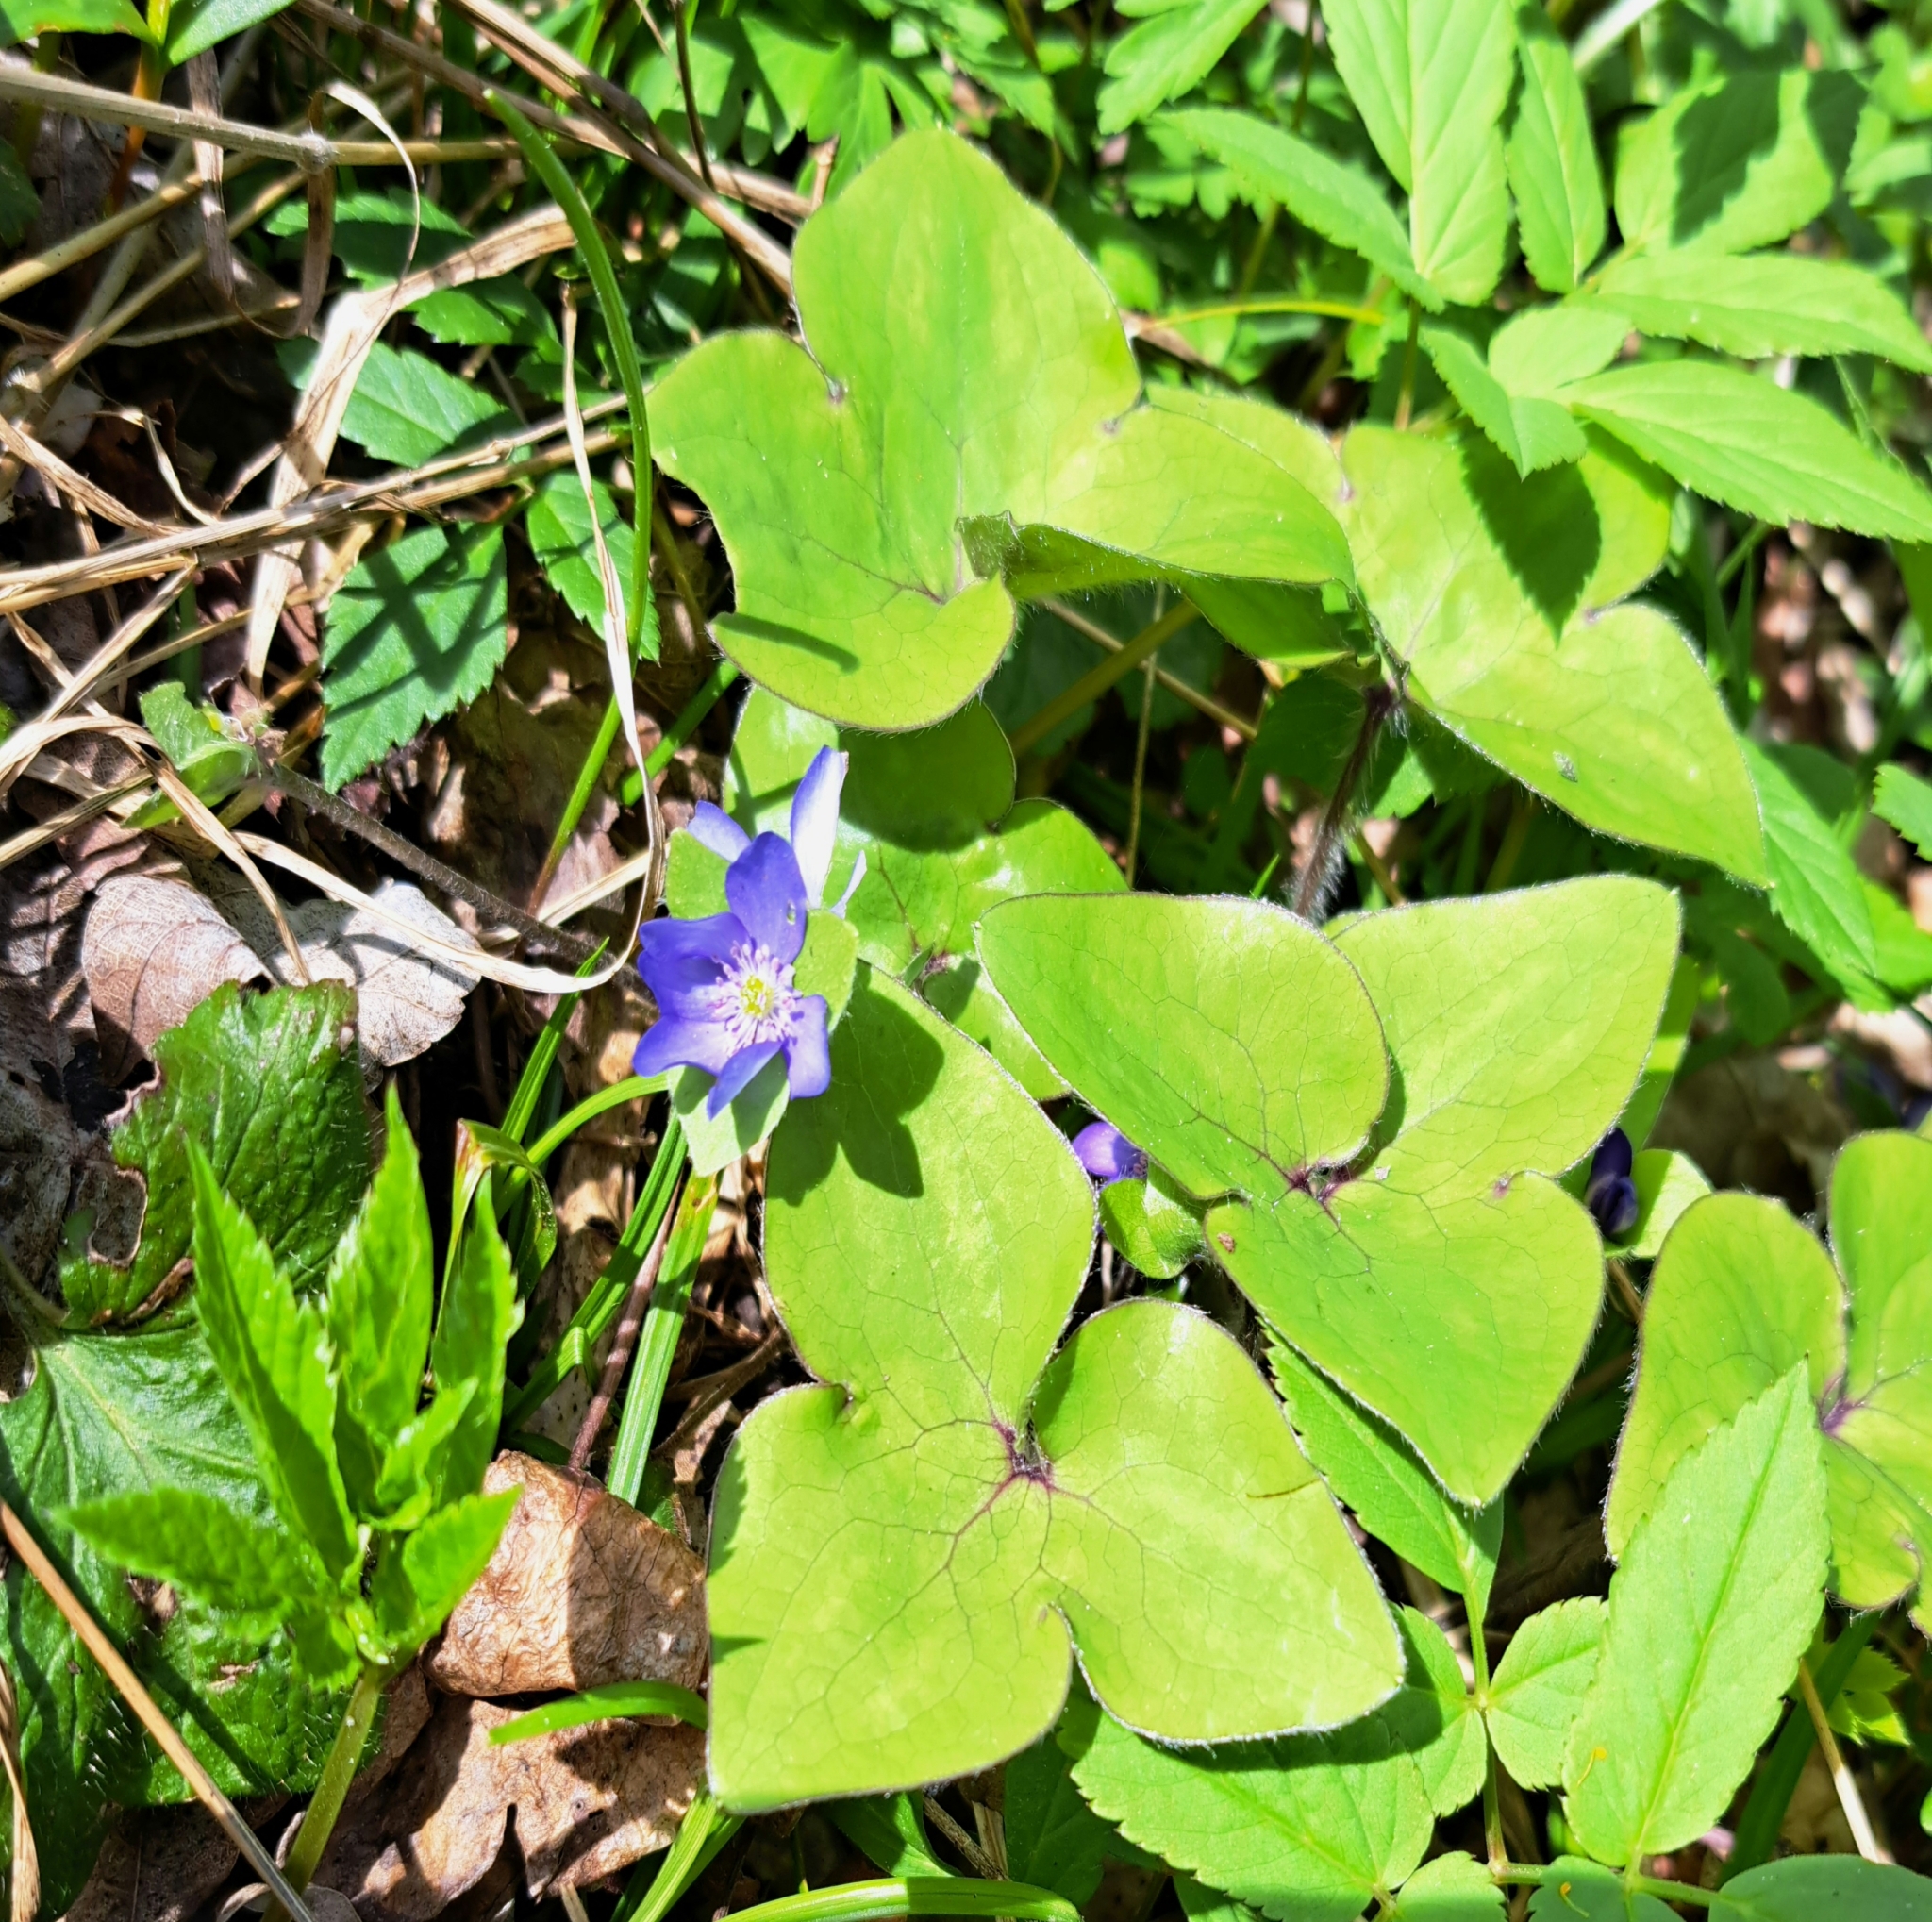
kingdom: Plantae
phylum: Tracheophyta
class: Magnoliopsida
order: Ranunculales
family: Ranunculaceae
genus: Hepatica
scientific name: Hepatica nobilis
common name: Liverleaf
